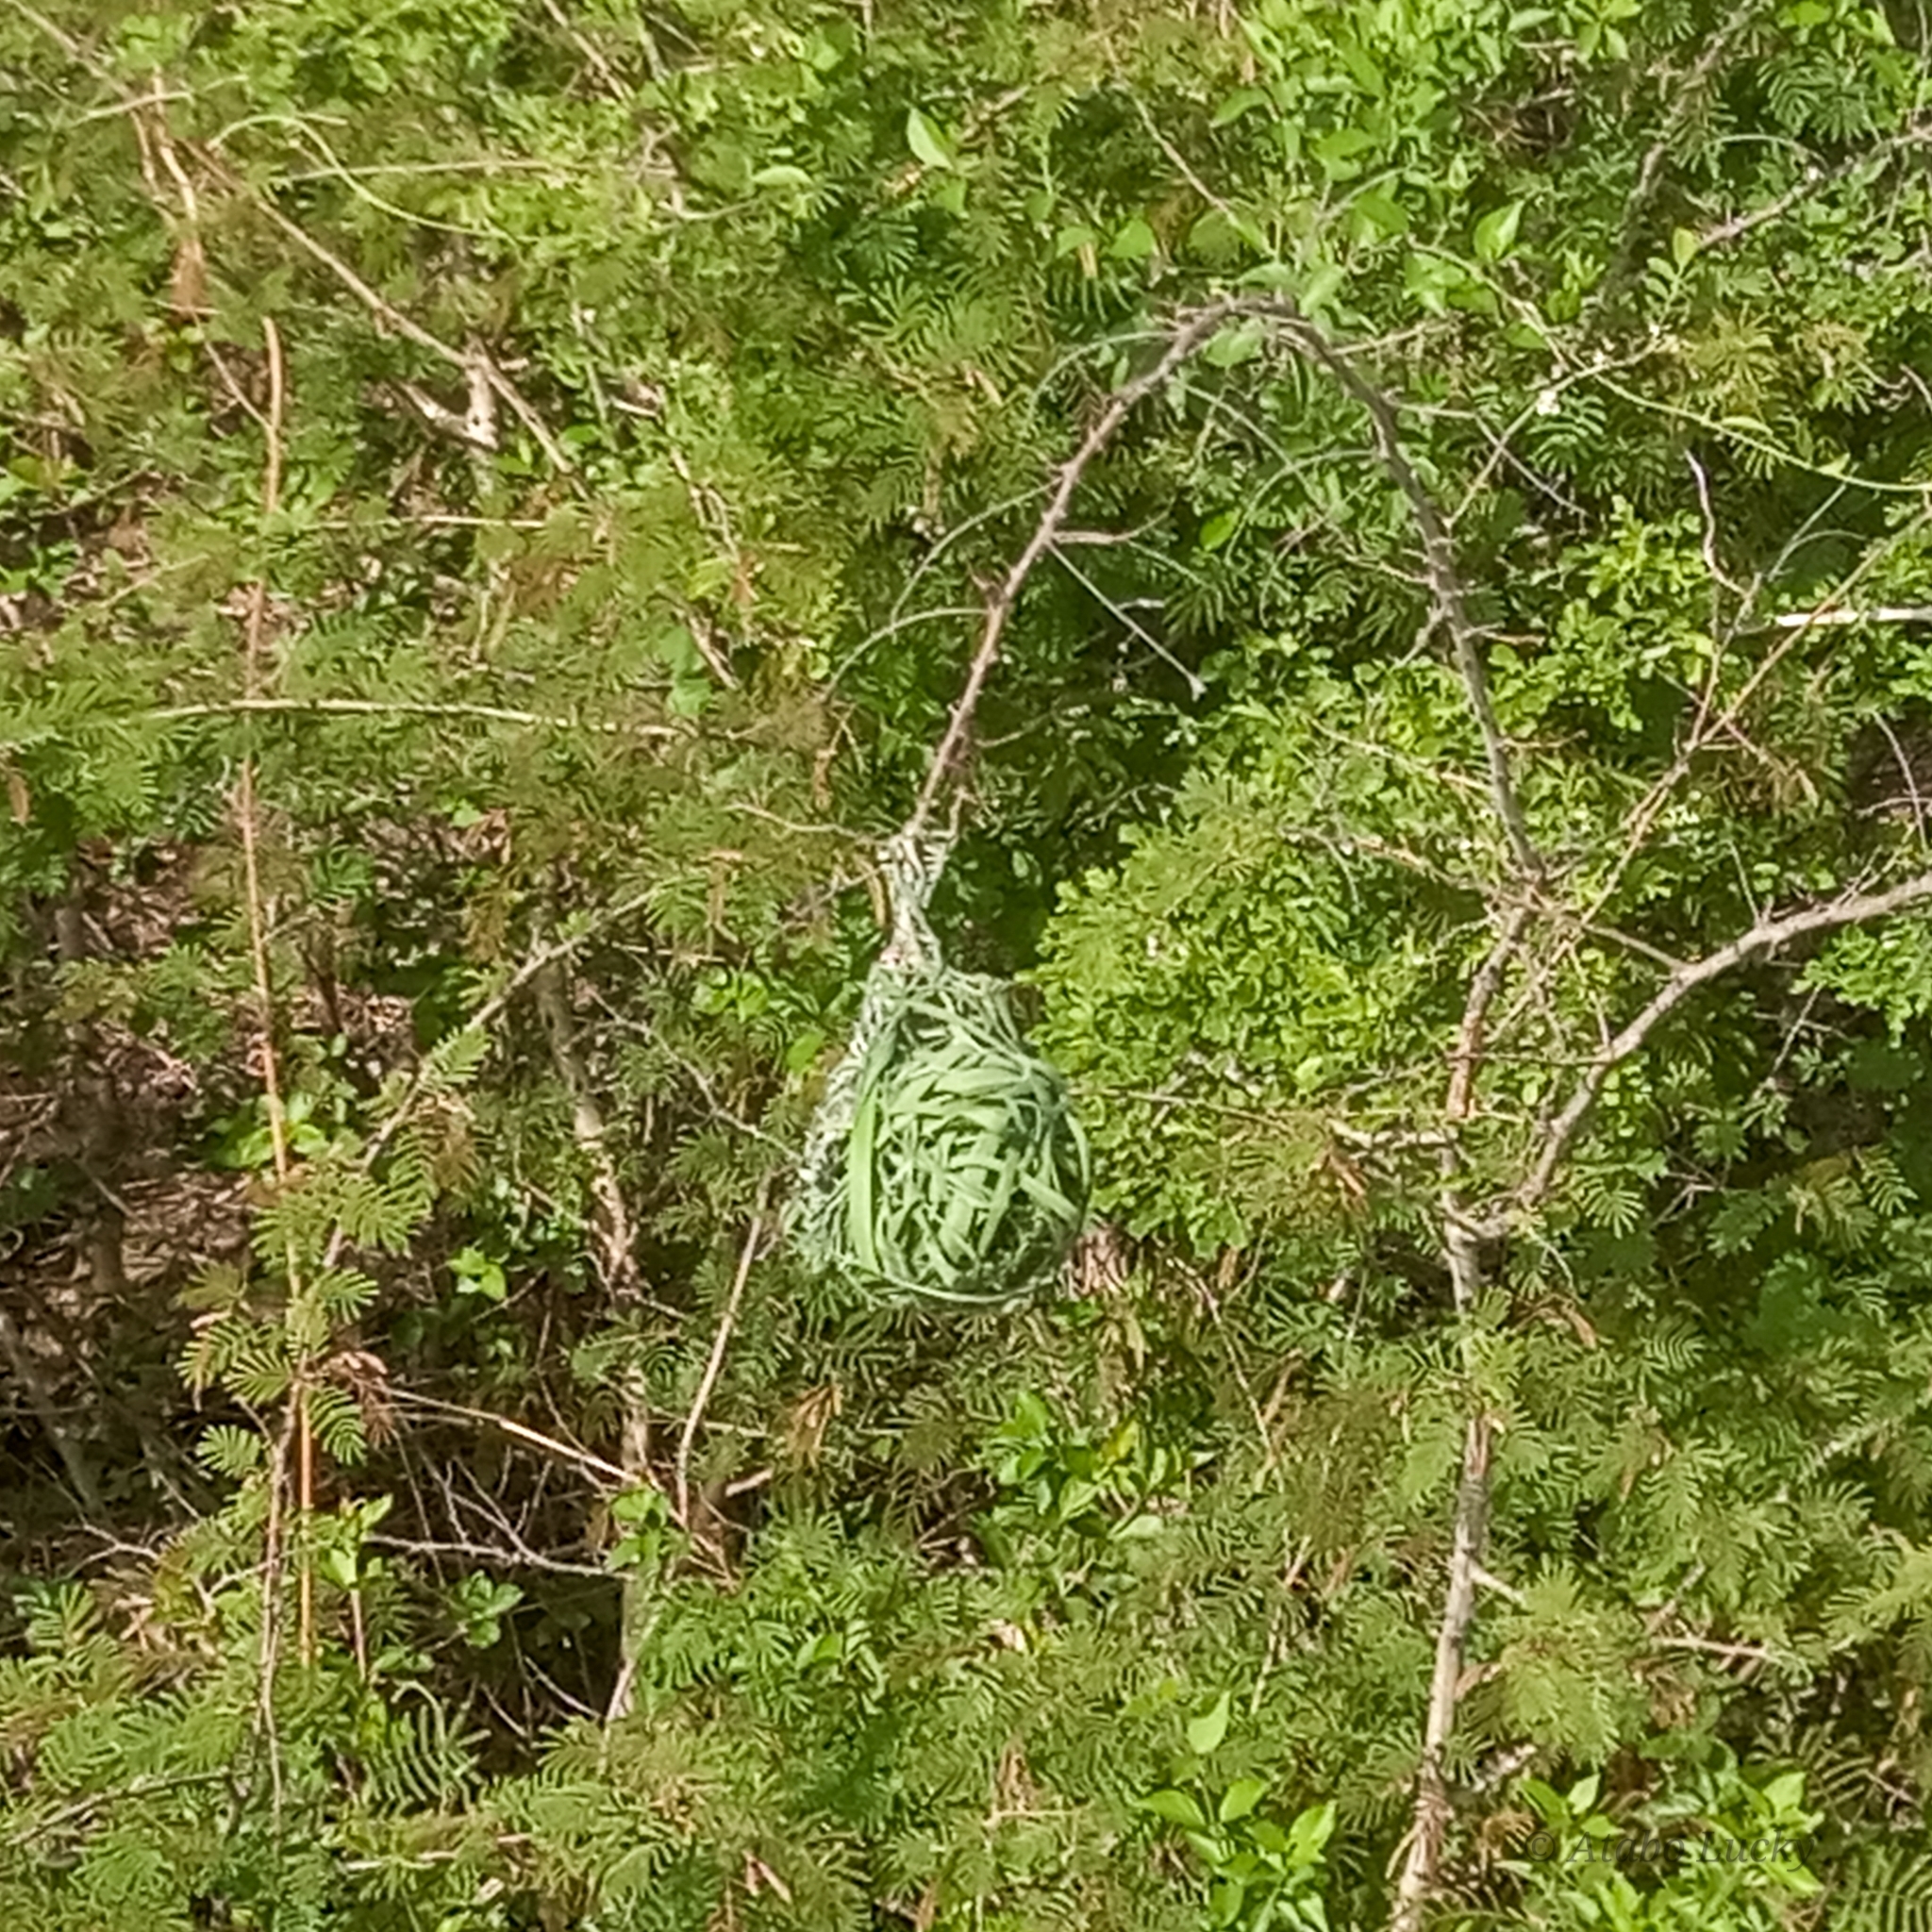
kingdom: Animalia
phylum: Chordata
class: Aves
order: Passeriformes
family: Ploceidae
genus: Ploceus
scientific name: Ploceus vitellinus
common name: Vitelline masked weaver
